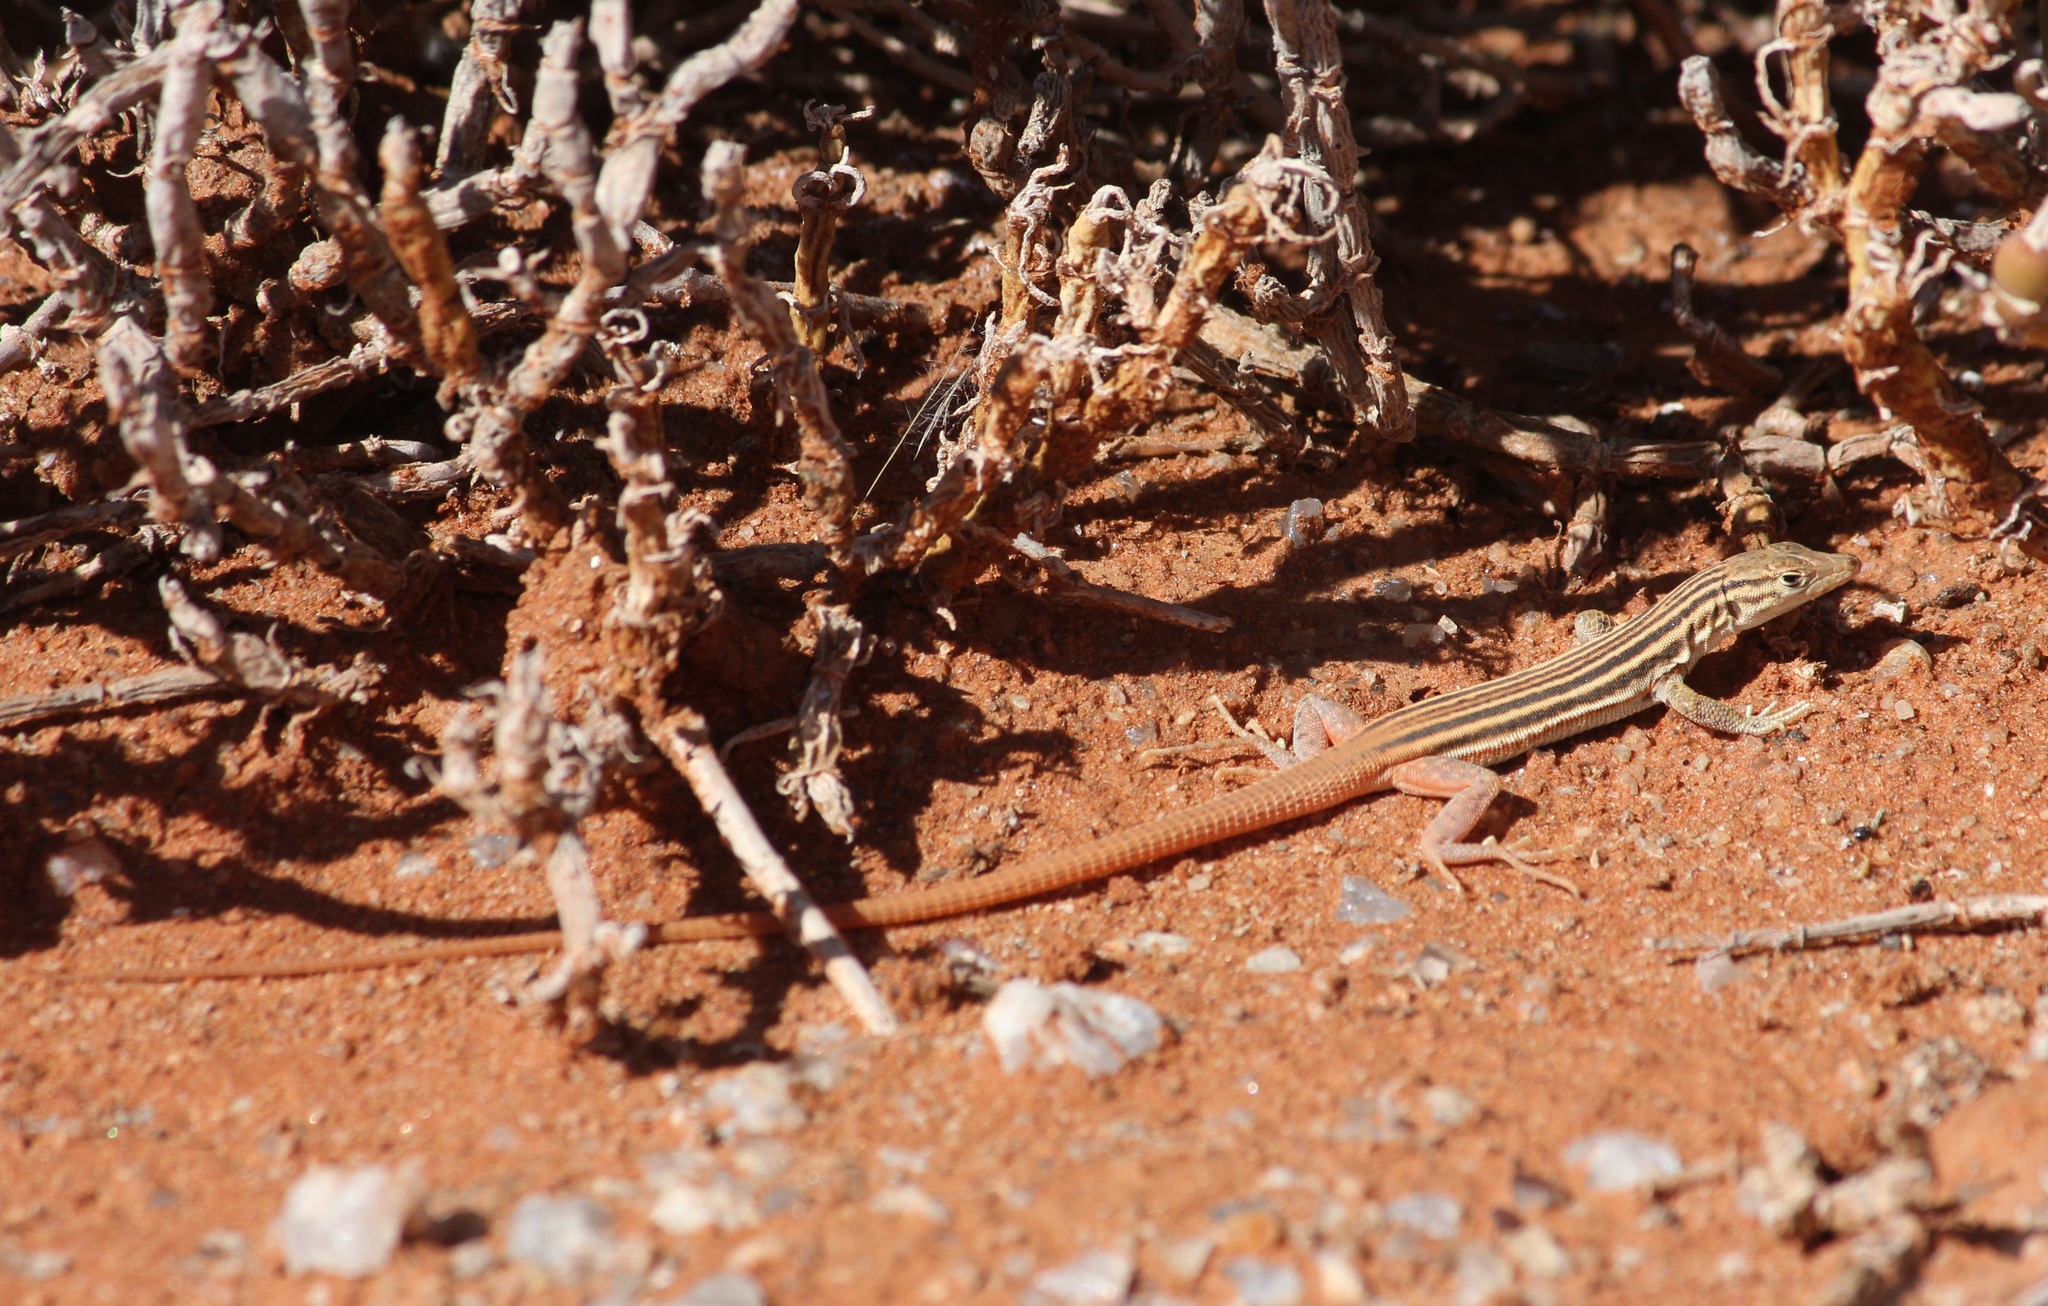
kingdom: Animalia
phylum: Chordata
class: Squamata
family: Lacertidae
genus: Pedioplanis
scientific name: Pedioplanis namaquensis
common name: Namaqua sand lizard
